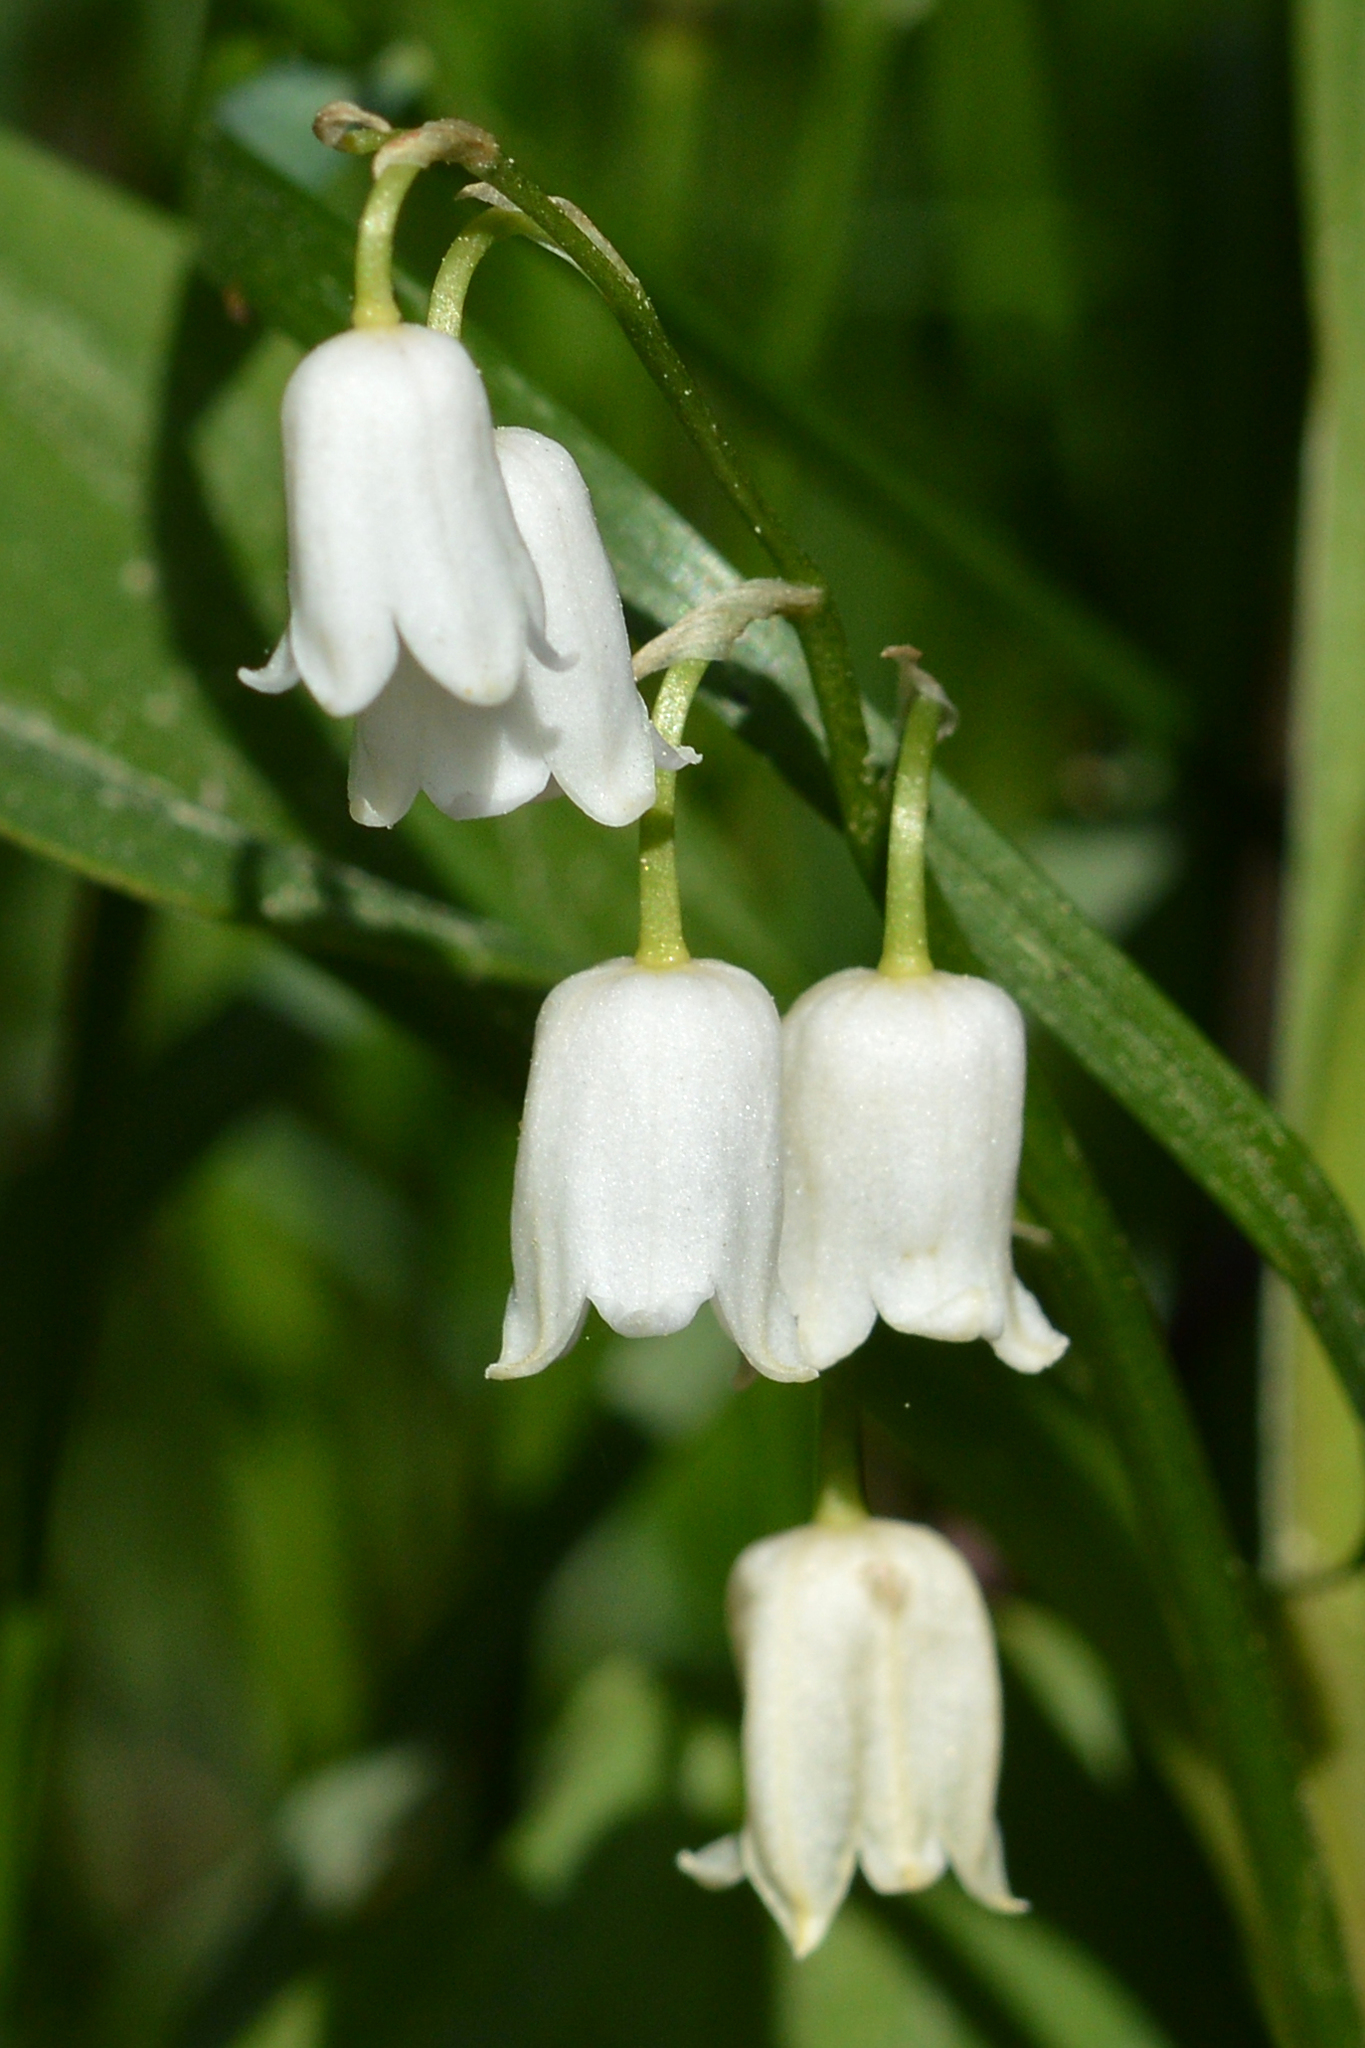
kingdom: Plantae
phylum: Tracheophyta
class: Liliopsida
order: Asparagales
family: Asparagaceae
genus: Convallaria
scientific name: Convallaria majalis
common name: Lily-of-the-valley
